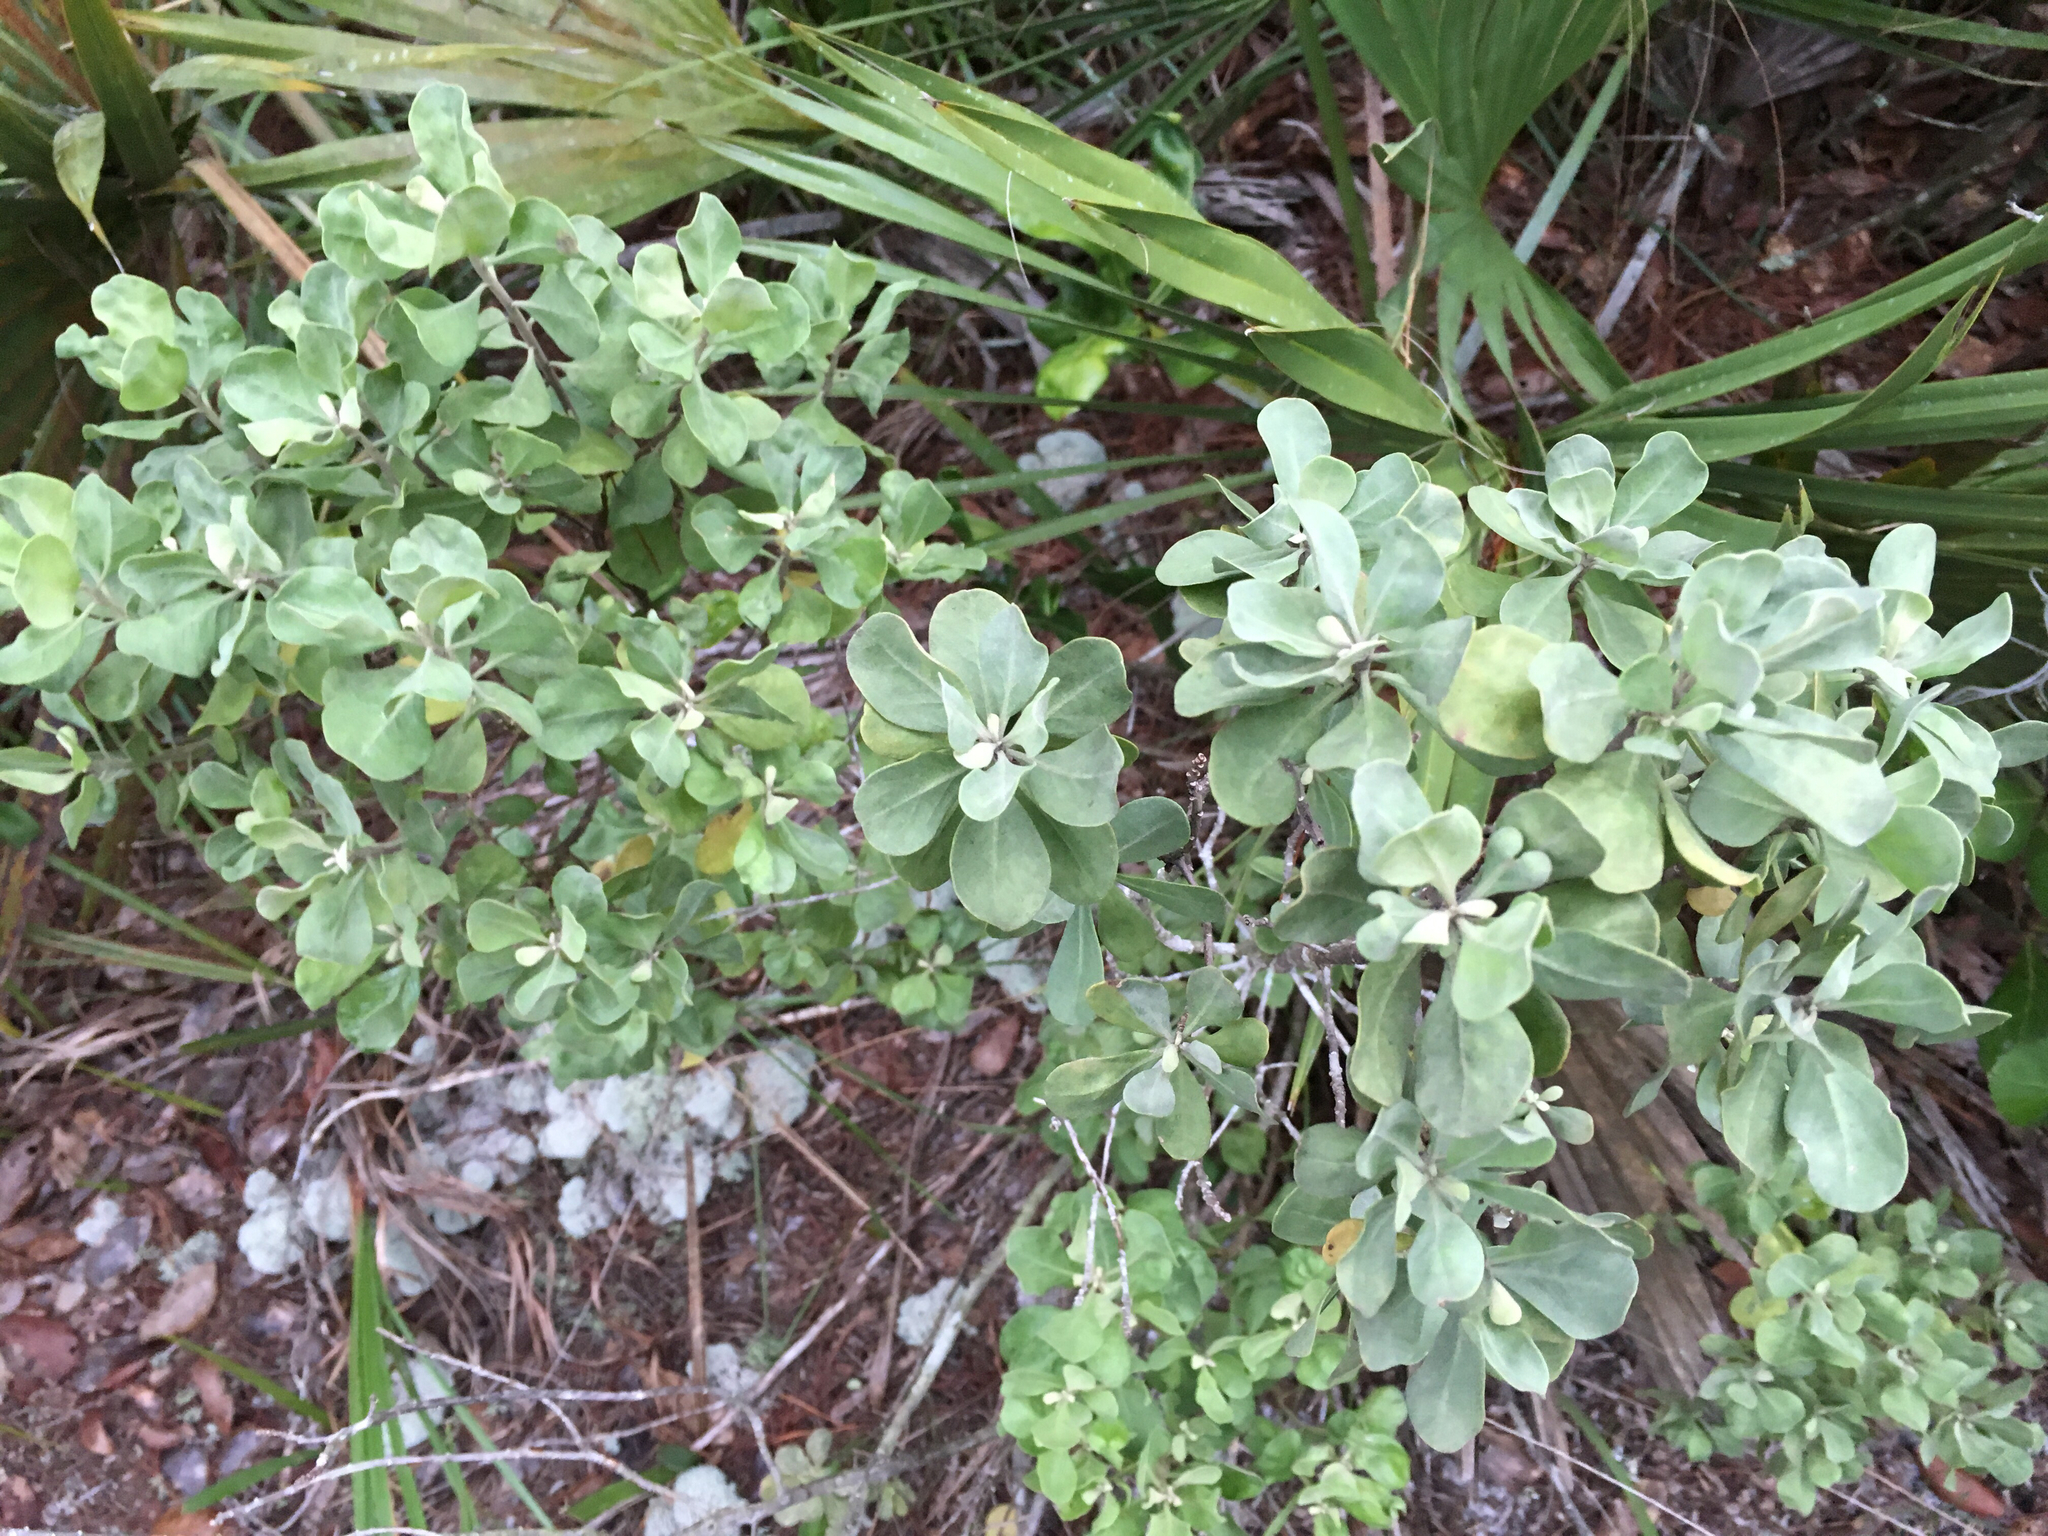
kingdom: Plantae
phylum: Tracheophyta
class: Magnoliopsida
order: Asterales
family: Asteraceae
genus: Garberia
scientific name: Garberia heterophylla
